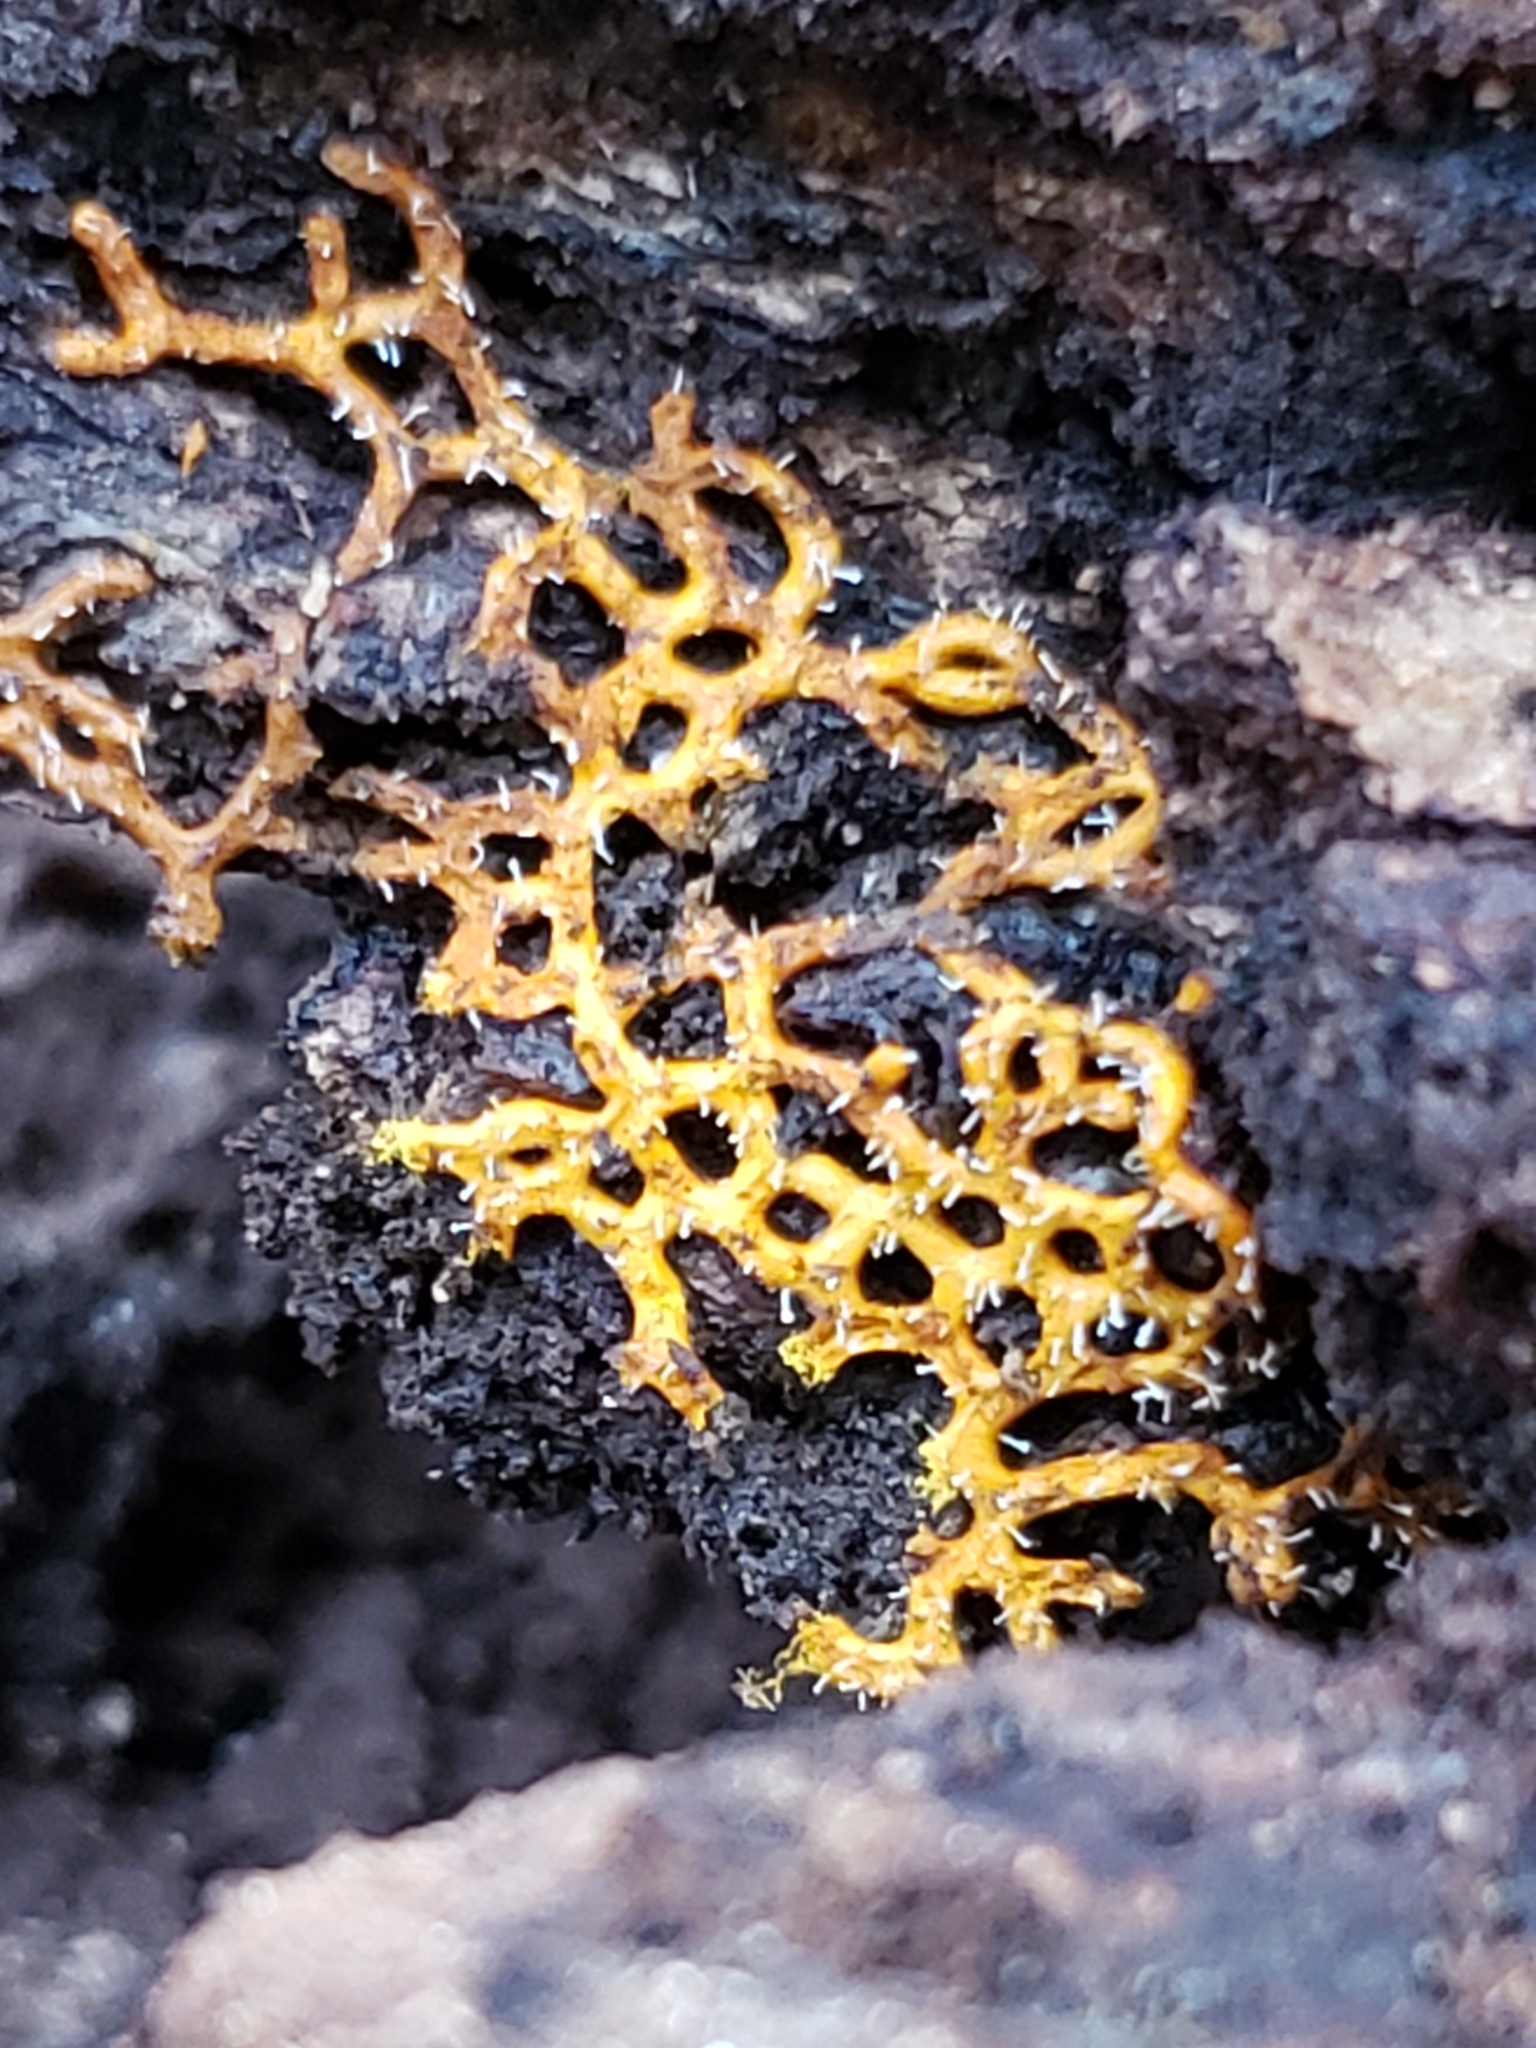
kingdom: Protozoa
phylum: Mycetozoa
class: Myxomycetes
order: Trichiales
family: Arcyriaceae
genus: Hemitrichia
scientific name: Hemitrichia serpula
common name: Pretzel slime mold
